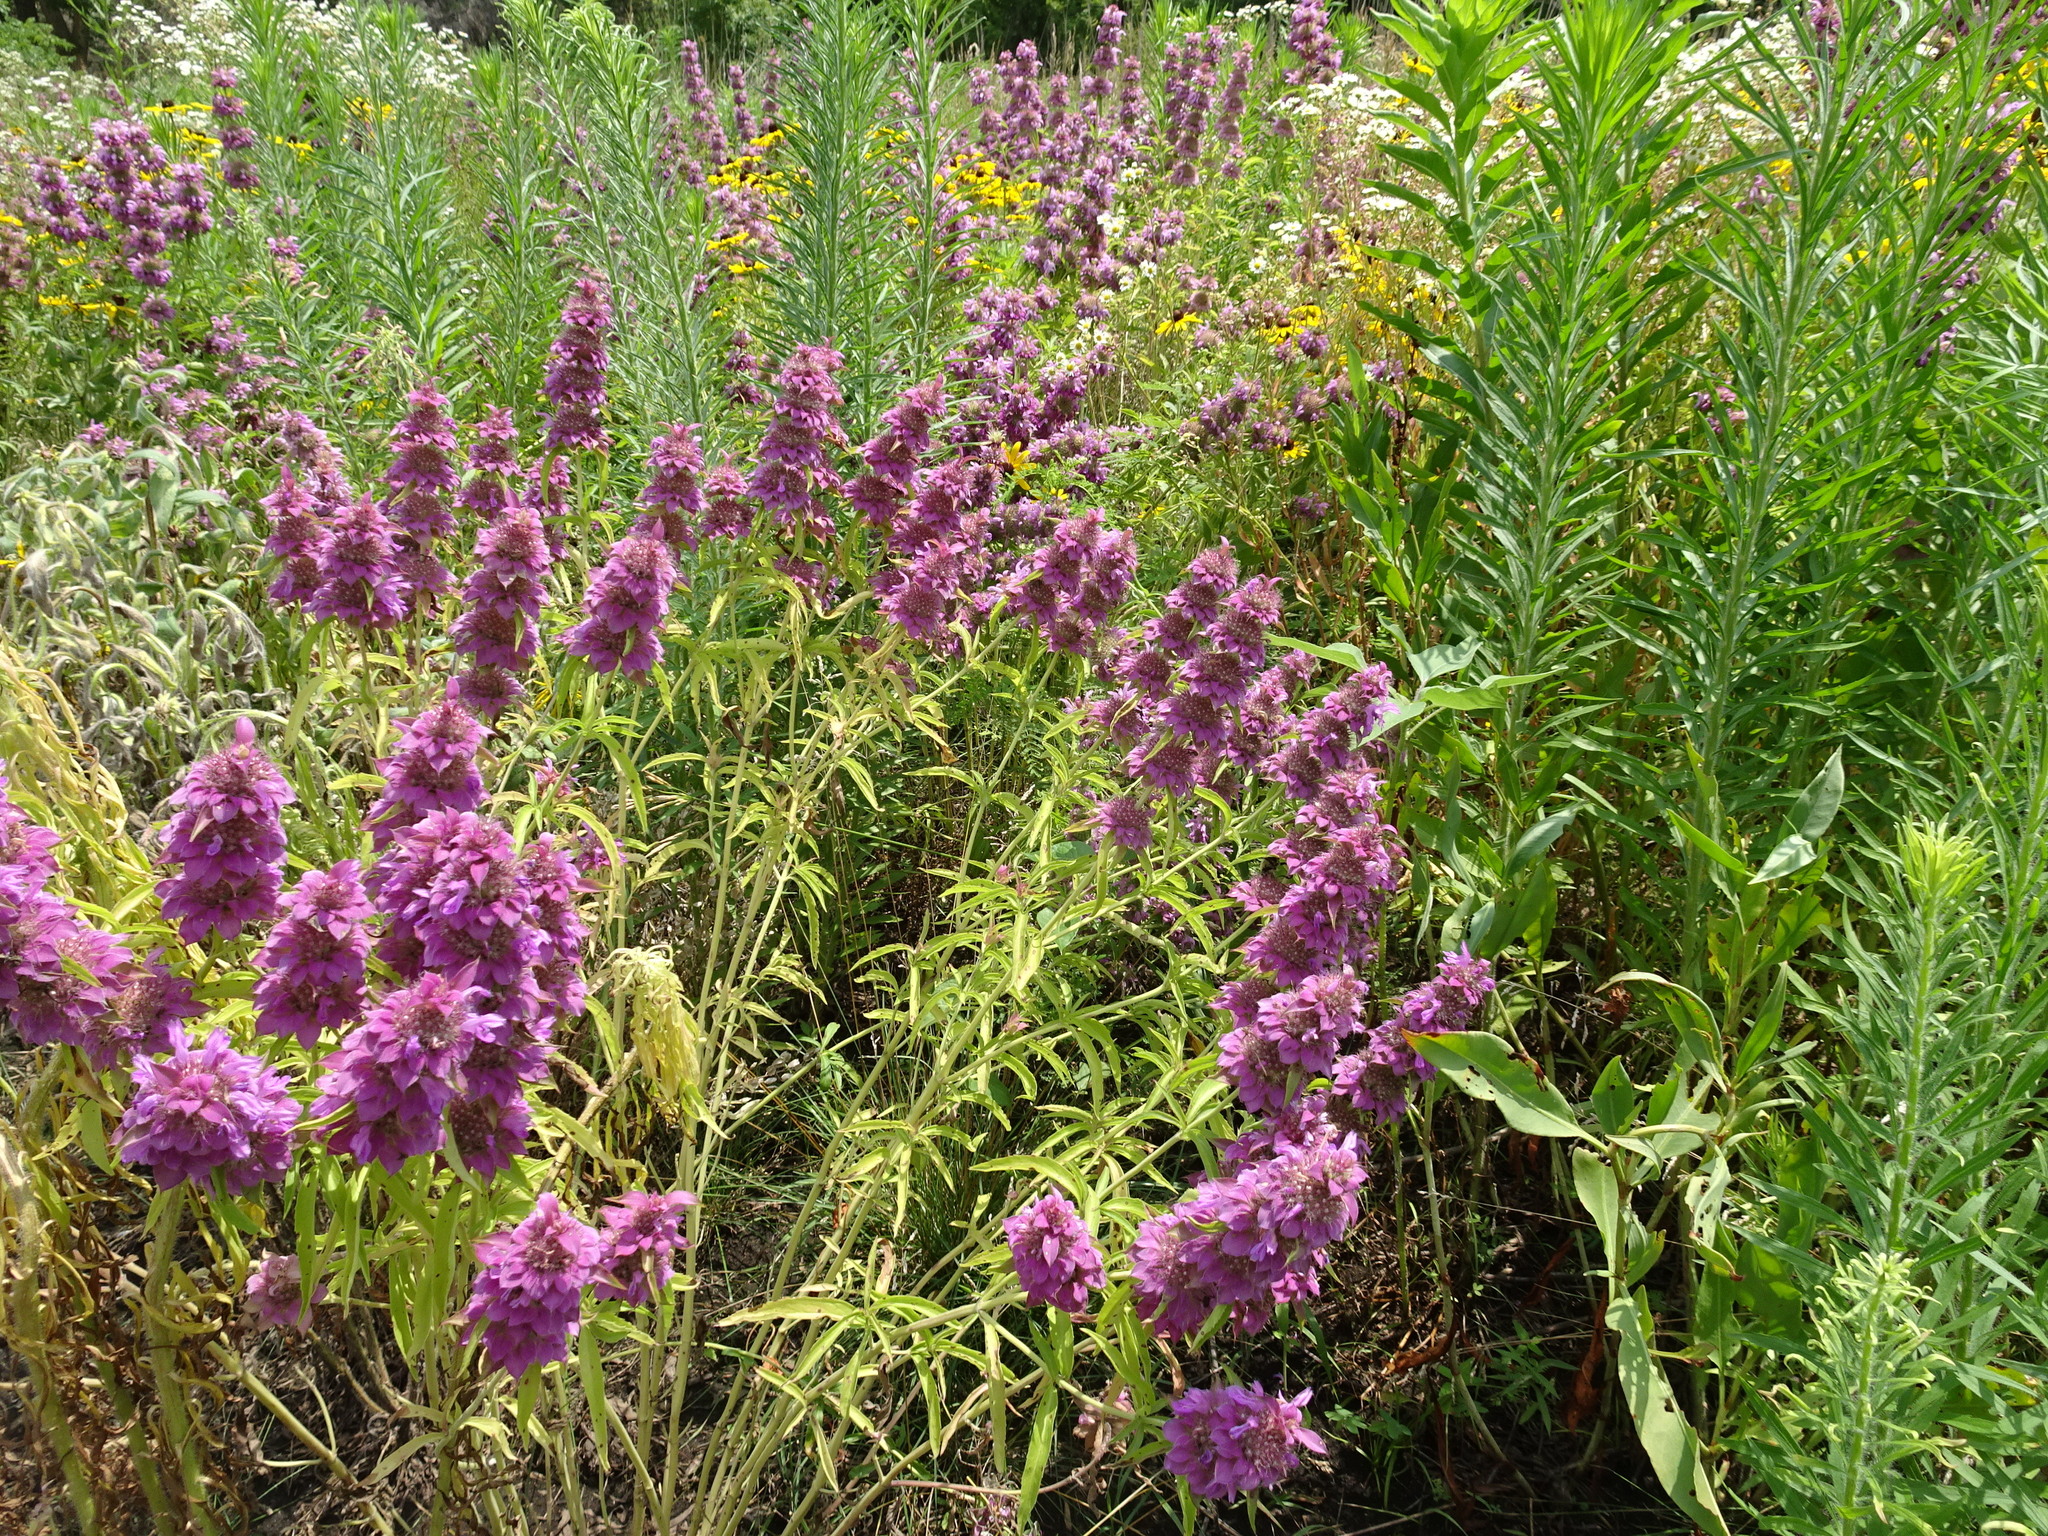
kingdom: Plantae
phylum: Tracheophyta
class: Magnoliopsida
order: Lamiales
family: Lamiaceae
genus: Monarda
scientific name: Monarda citriodora
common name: Lemon beebalm
